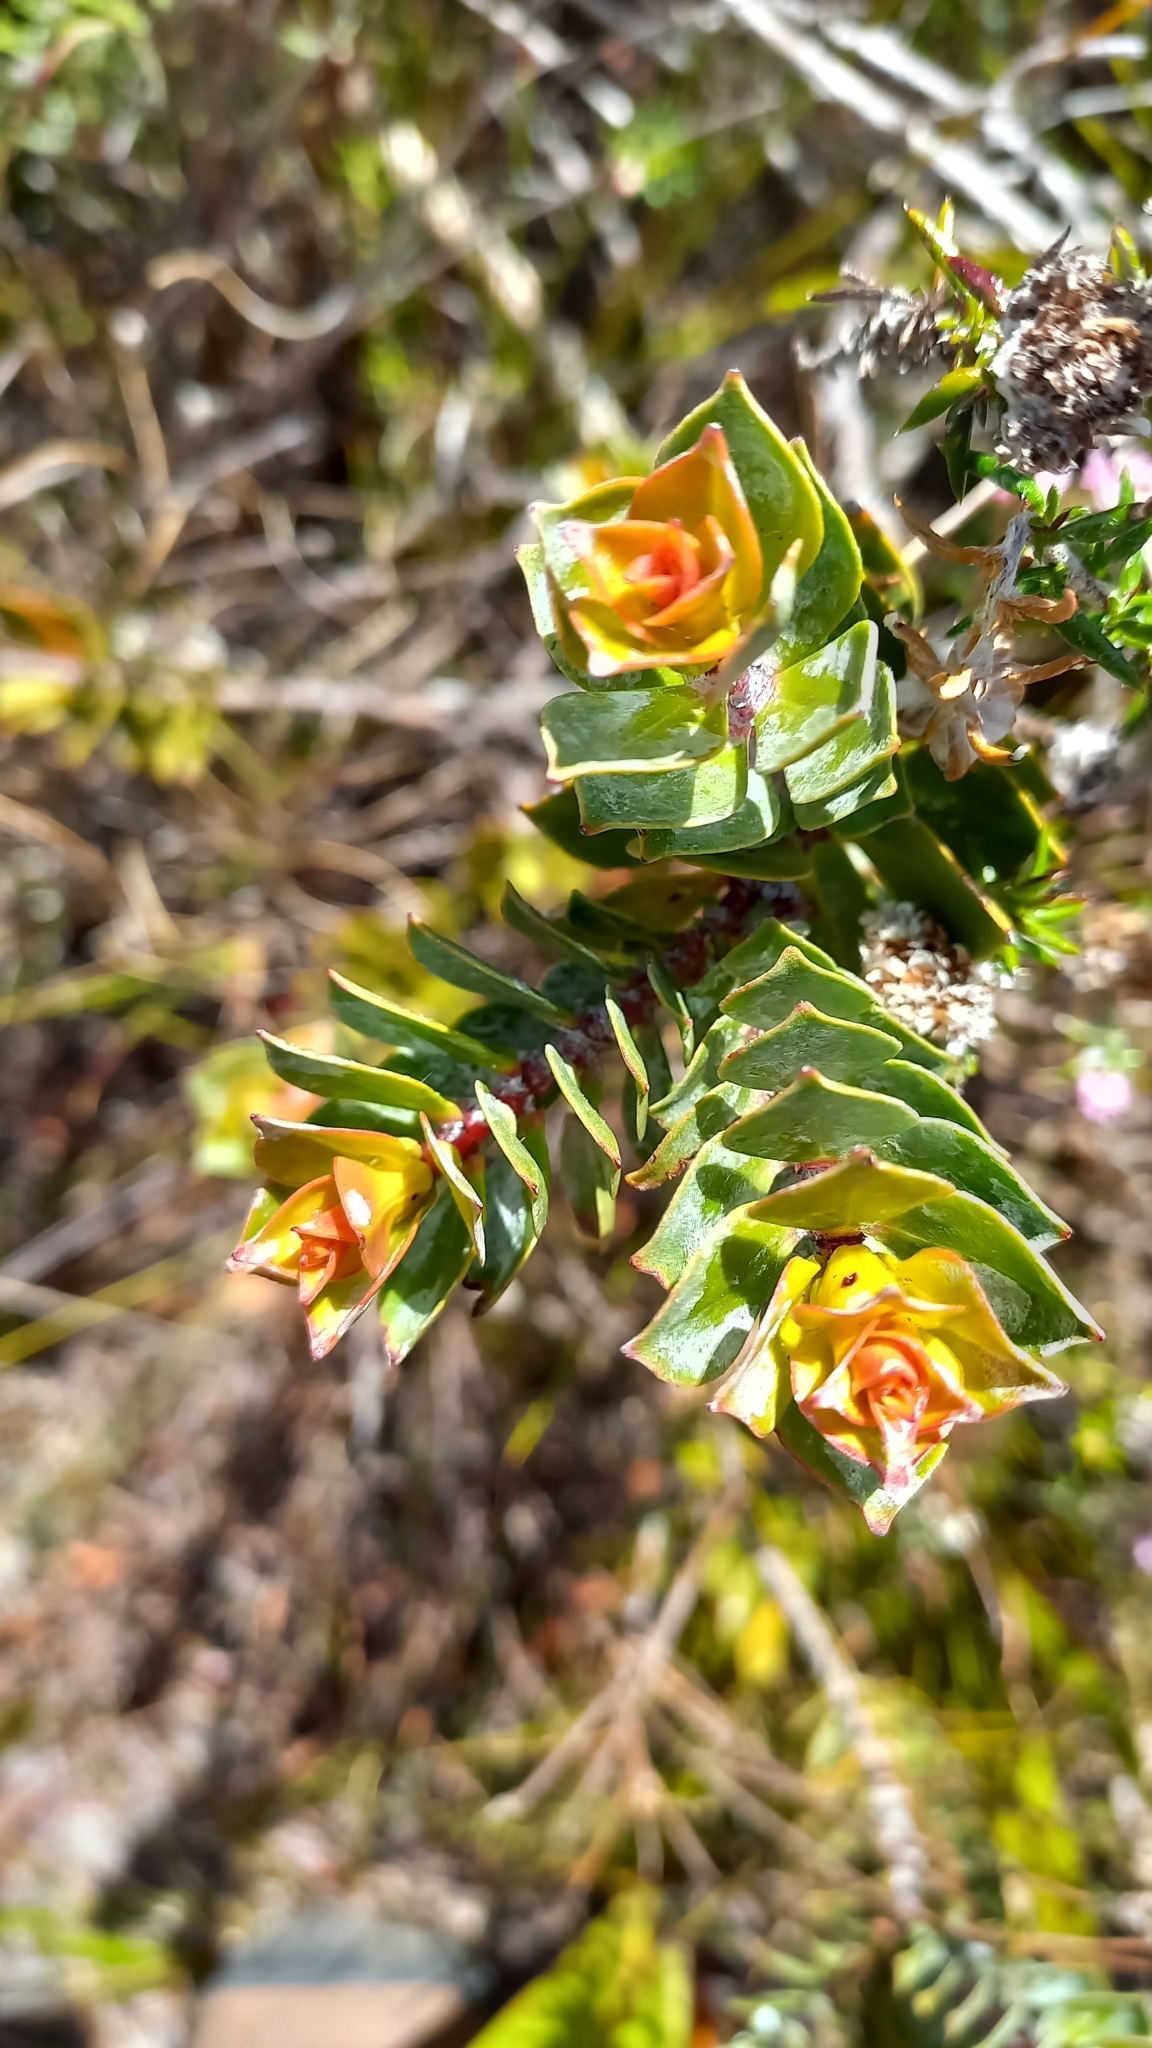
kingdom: Plantae
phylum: Tracheophyta
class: Magnoliopsida
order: Myrtales
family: Penaeaceae
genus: Saltera
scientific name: Saltera sarcocolla
